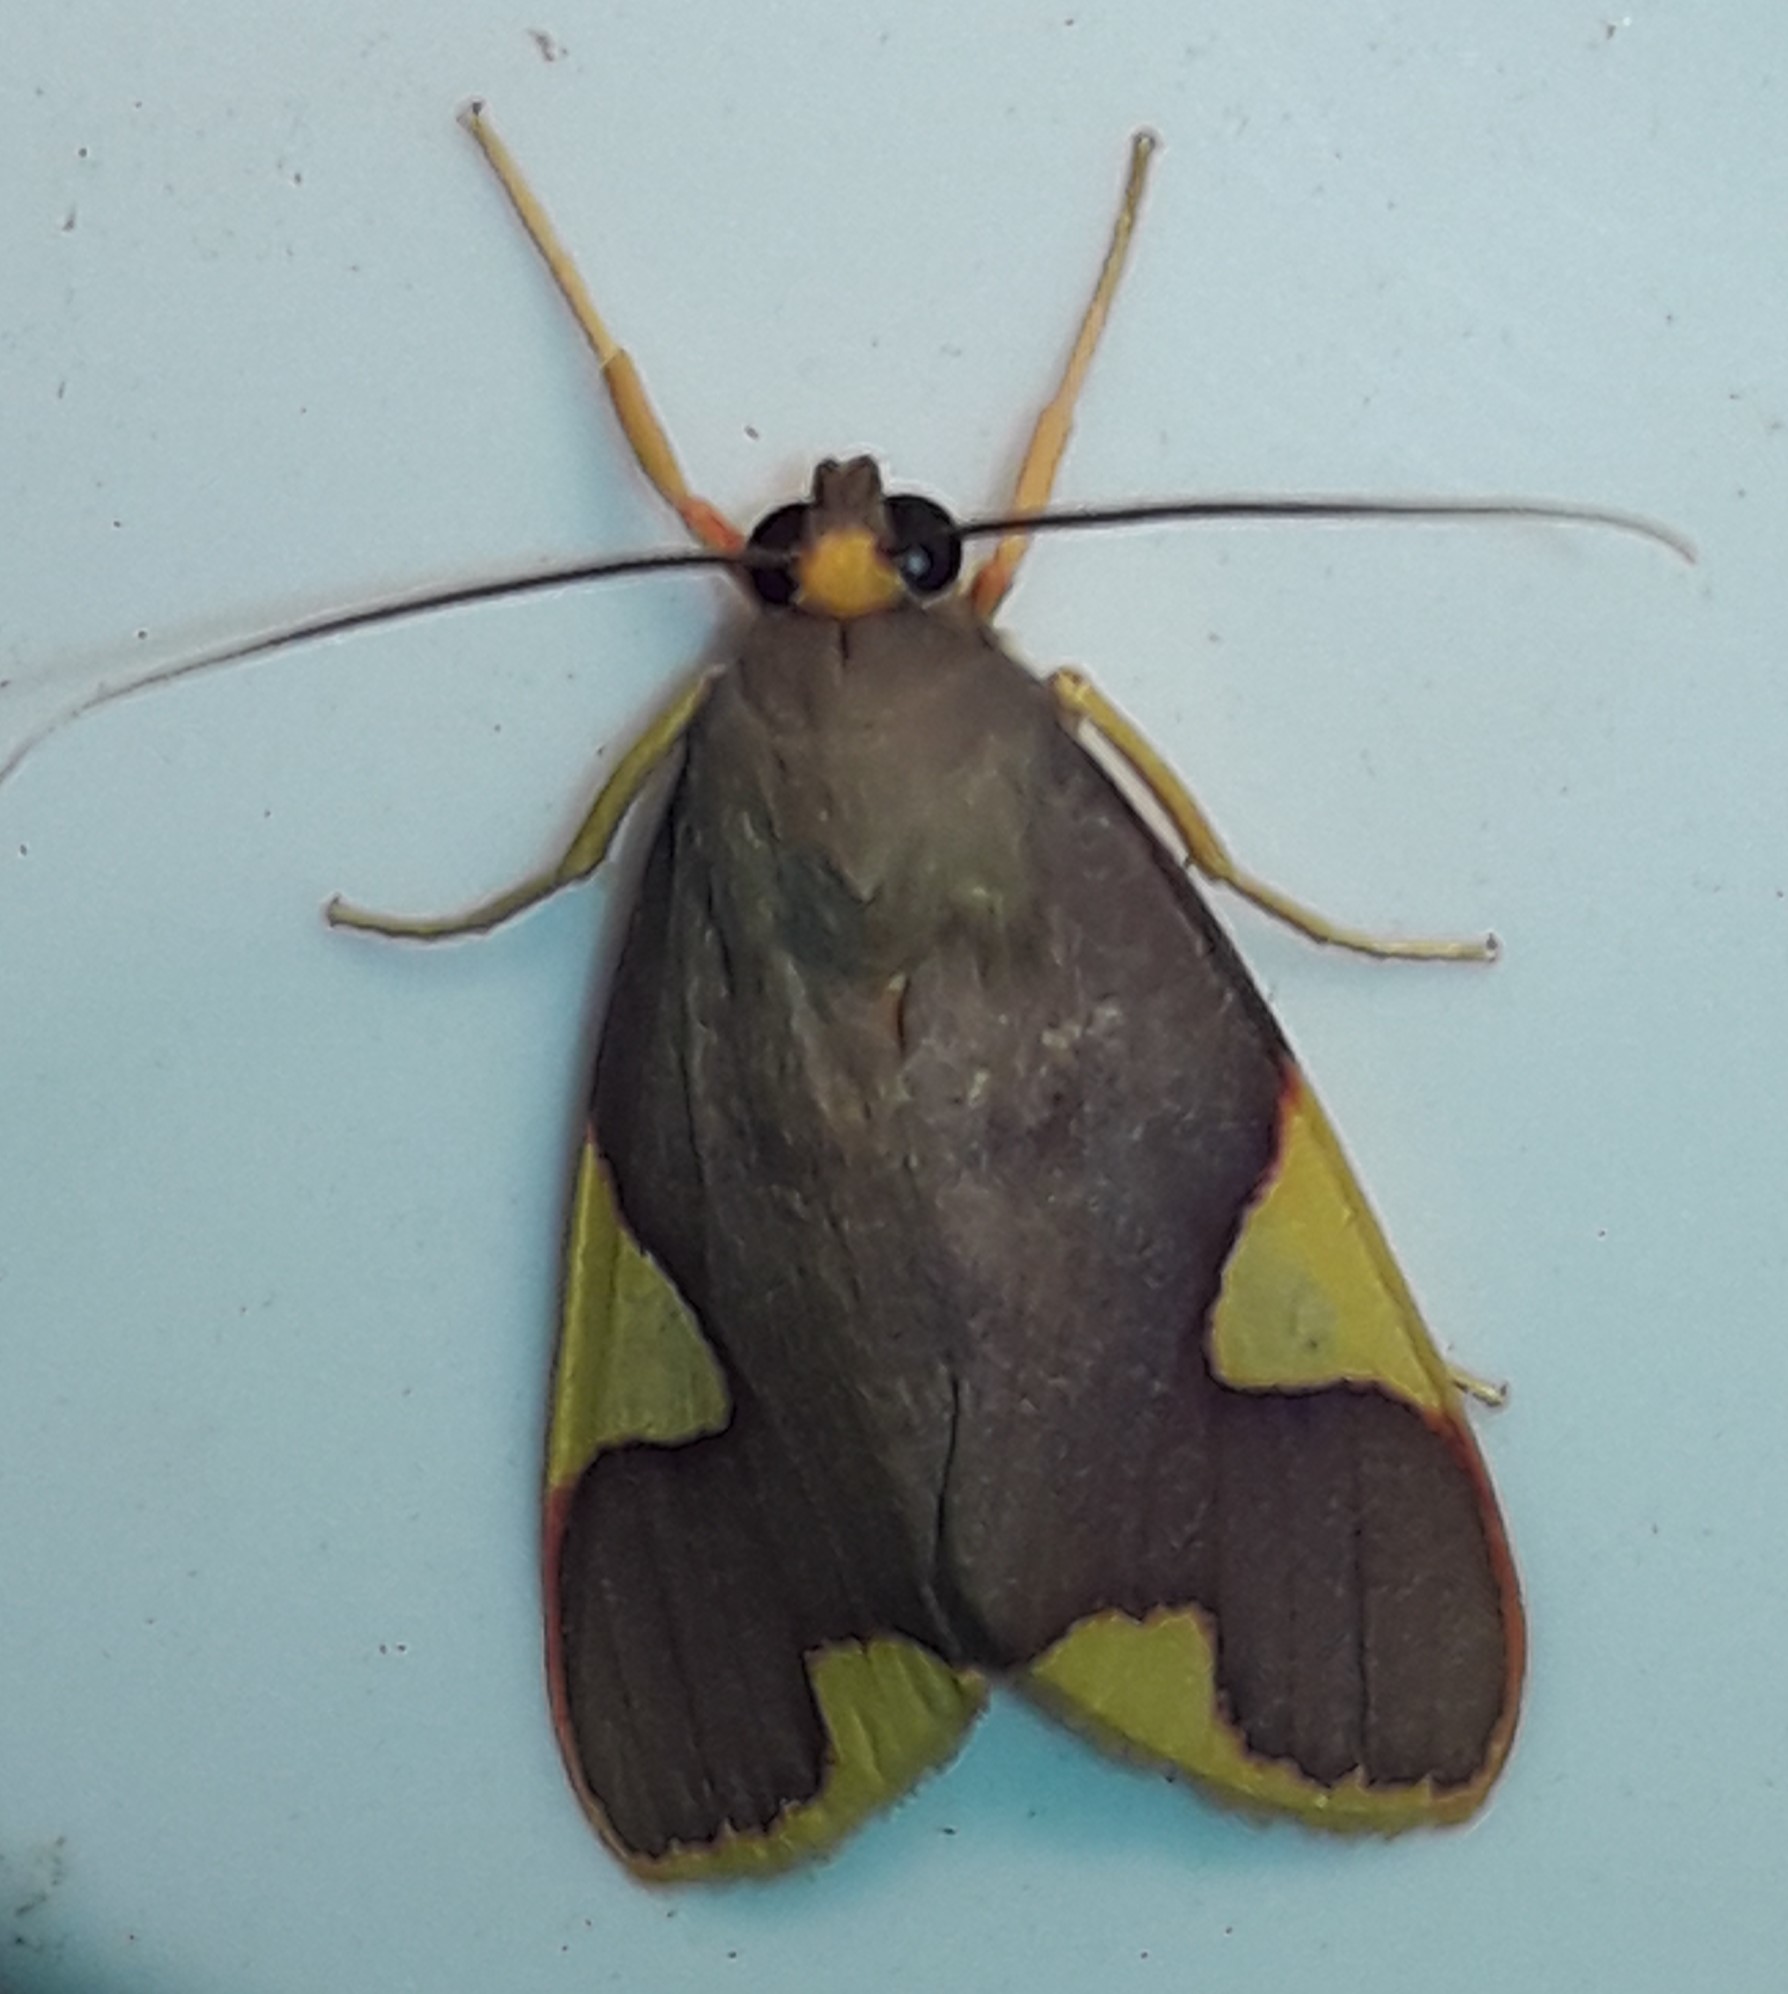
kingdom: Animalia
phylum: Arthropoda
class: Insecta
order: Lepidoptera
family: Erebidae
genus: Trichromia
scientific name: Trichromia cotes
